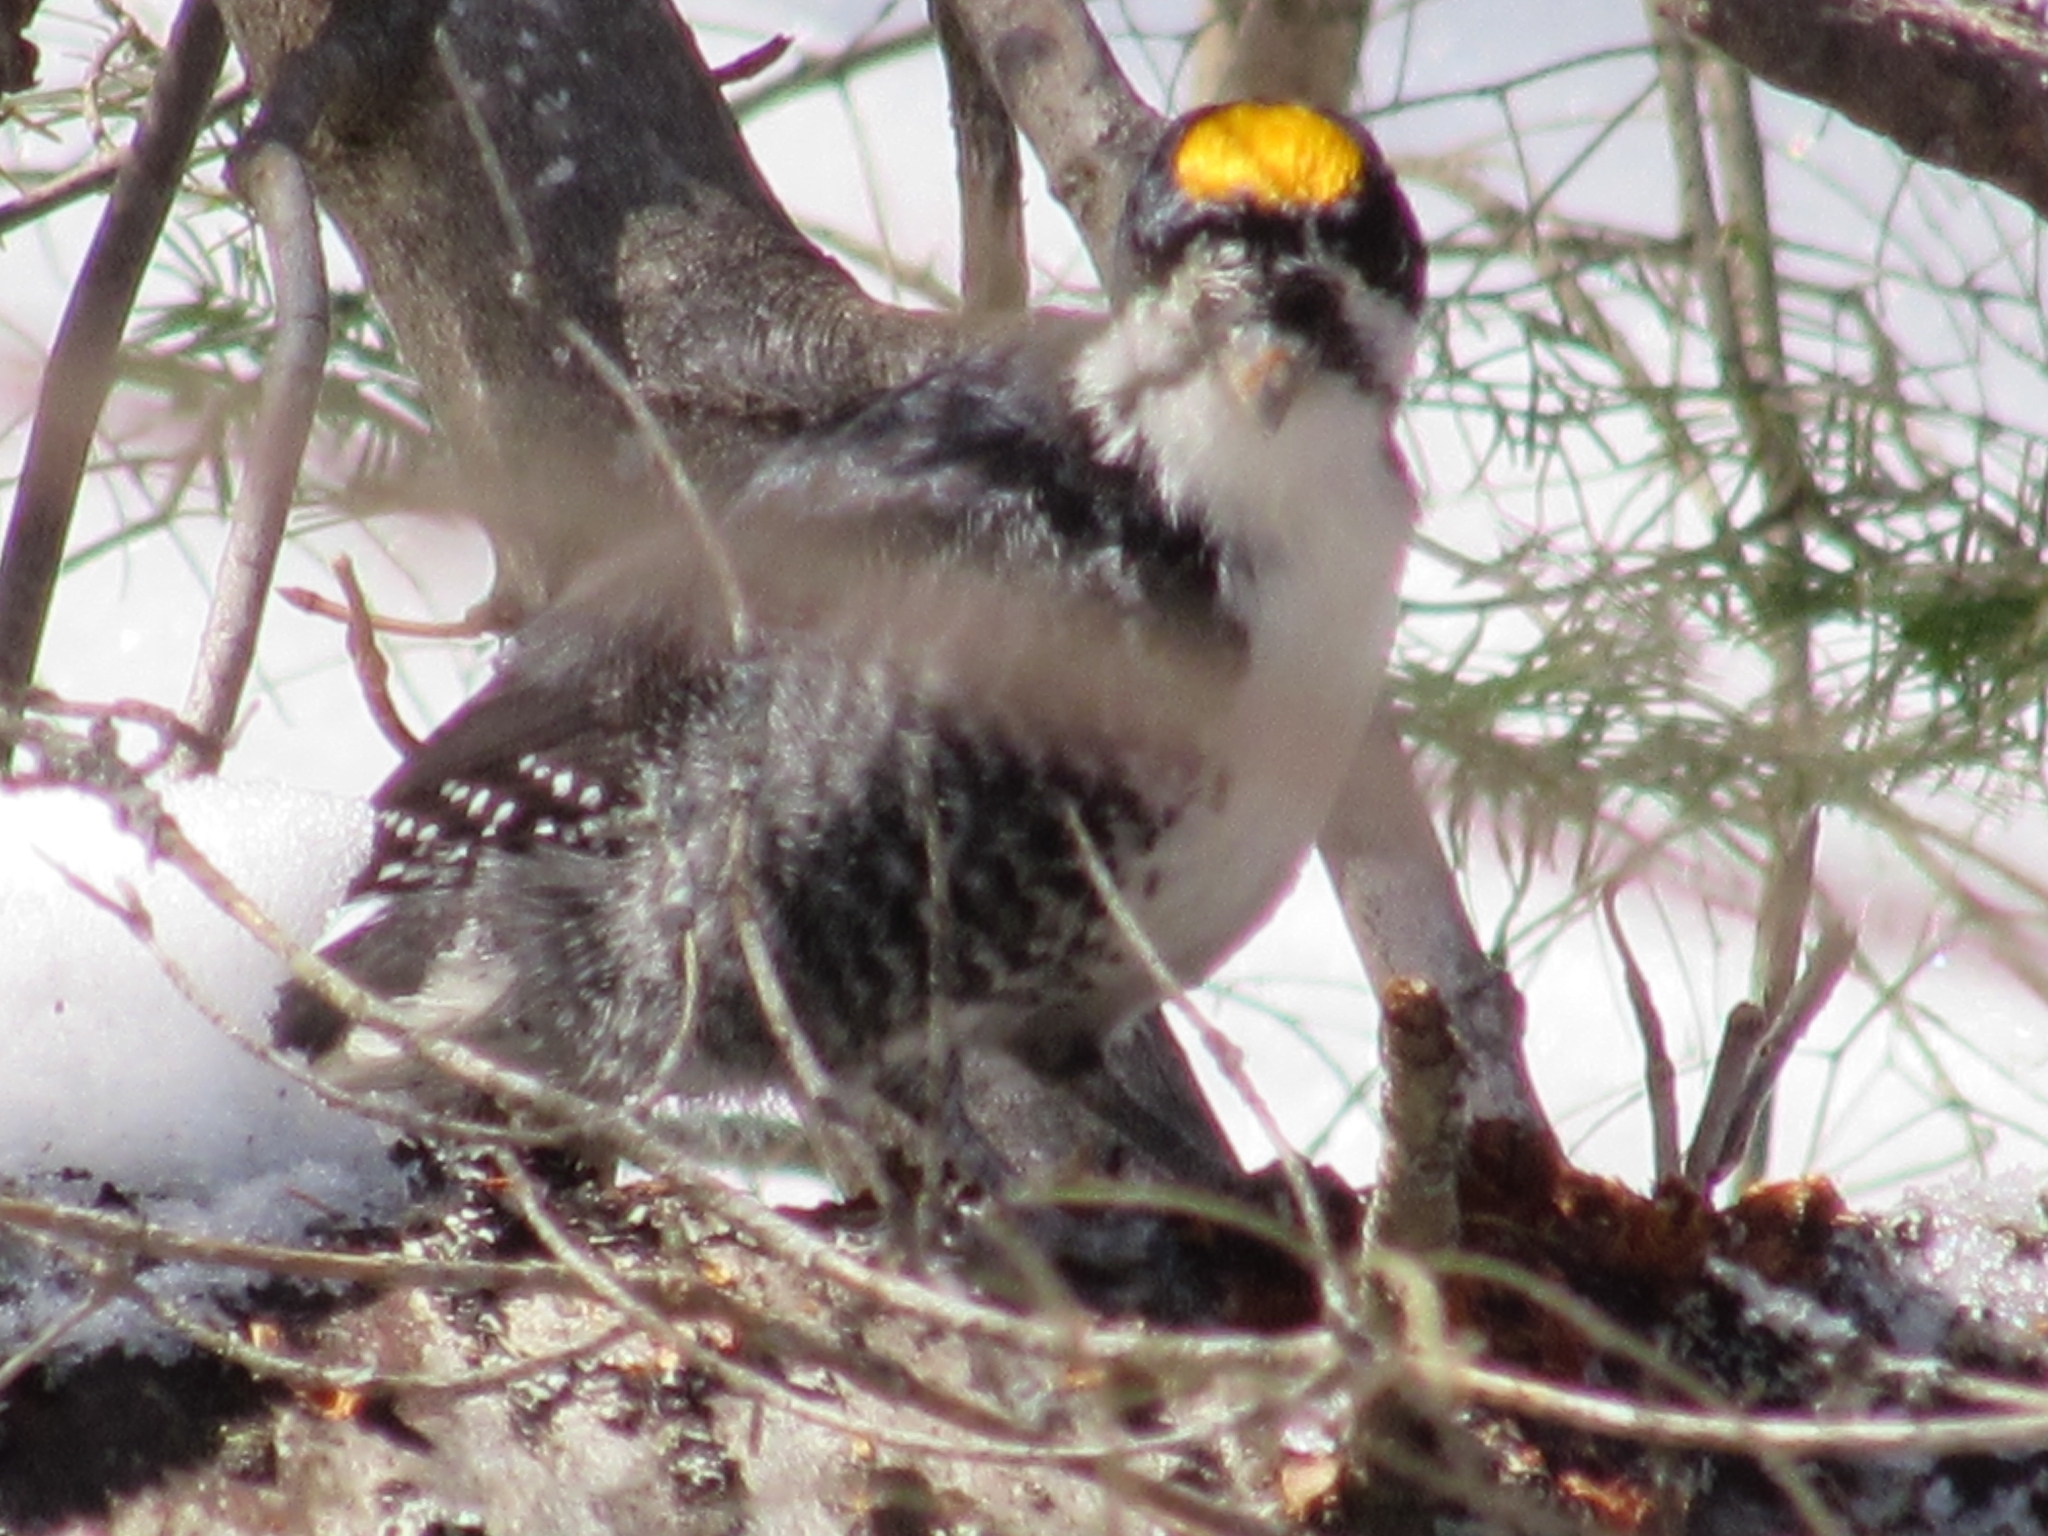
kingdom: Animalia
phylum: Chordata
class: Aves
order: Piciformes
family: Picidae
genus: Picoides
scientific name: Picoides arcticus
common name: Black-backed woodpecker
